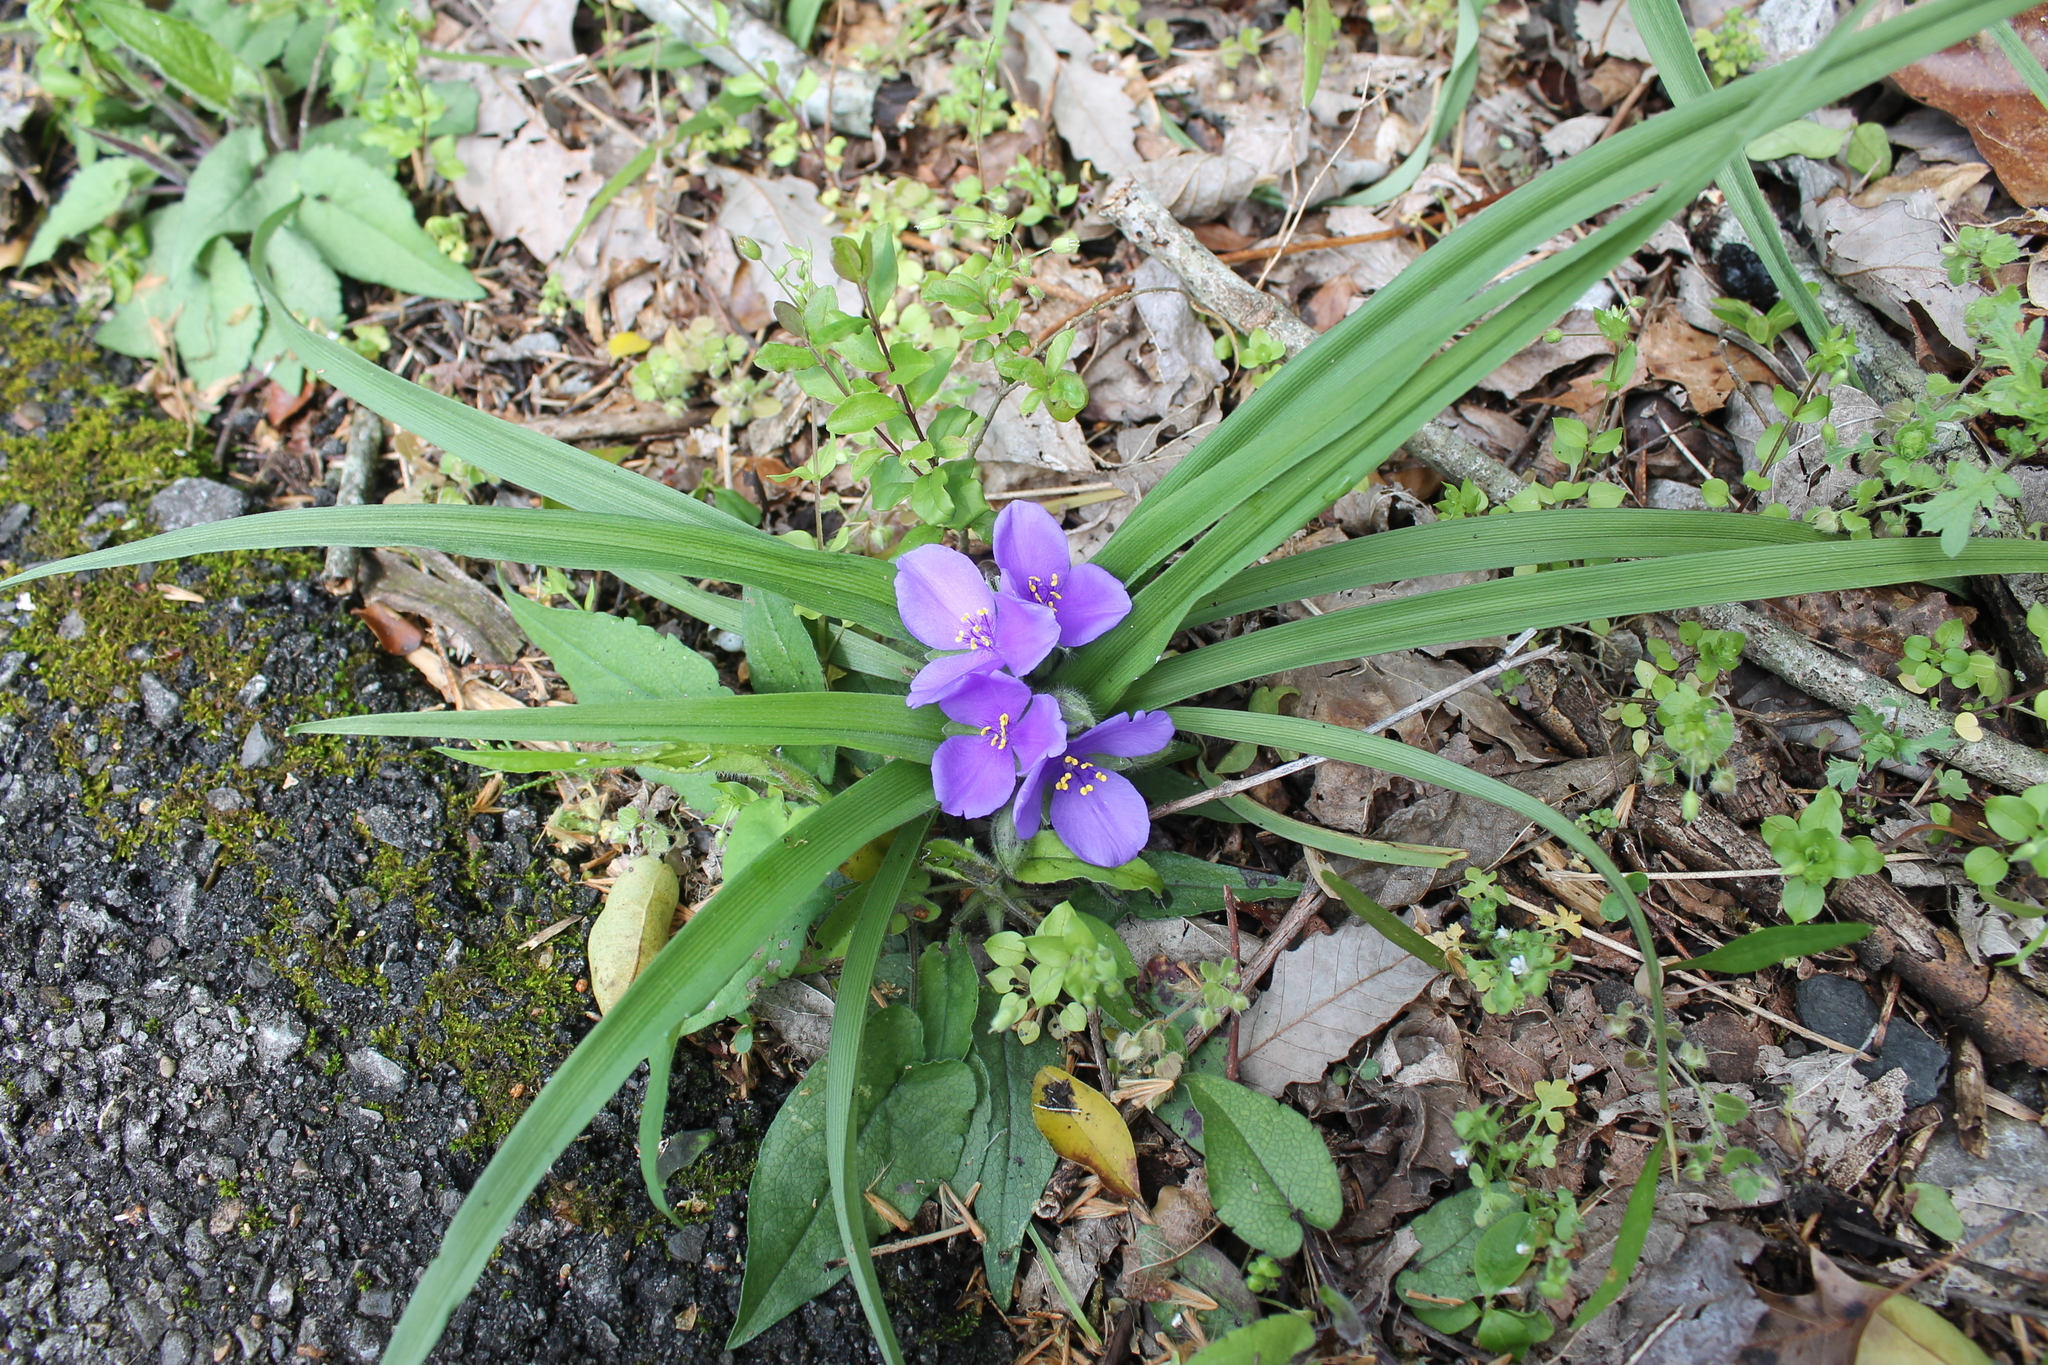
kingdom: Plantae
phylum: Tracheophyta
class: Liliopsida
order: Commelinales
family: Commelinaceae
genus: Tradescantia
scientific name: Tradescantia virginiana
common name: Spiderwort
